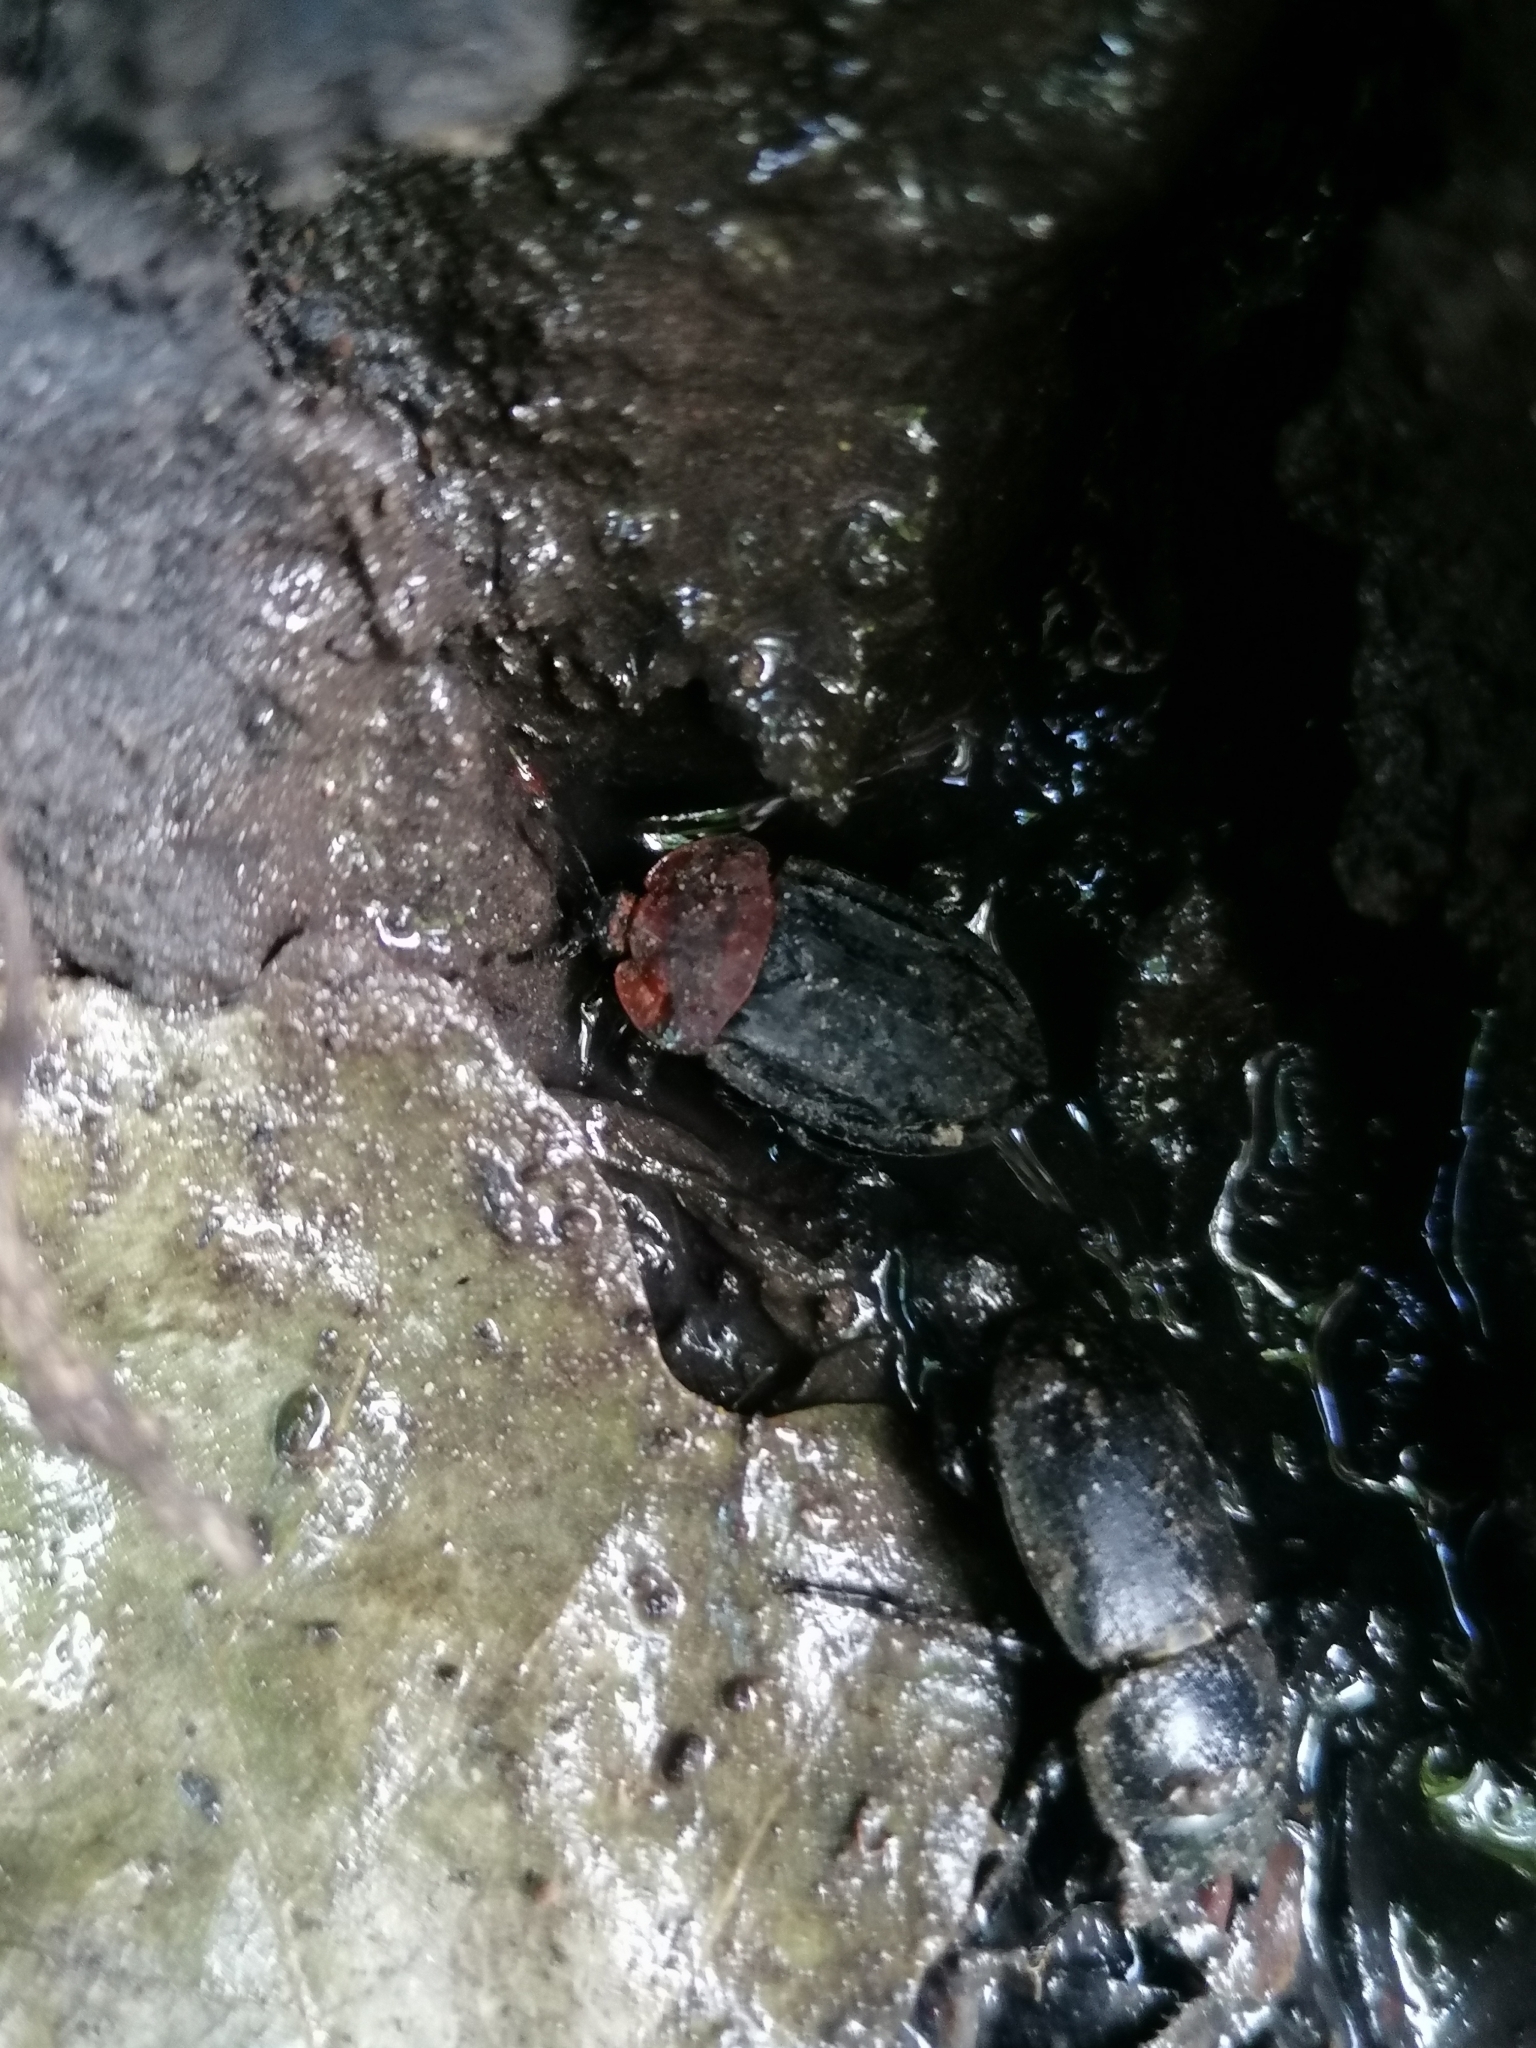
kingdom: Animalia
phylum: Arthropoda
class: Insecta
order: Coleoptera
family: Staphylinidae
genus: Oiceoptoma
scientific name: Oiceoptoma thoracicum
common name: Red-breasted carrion beetle
